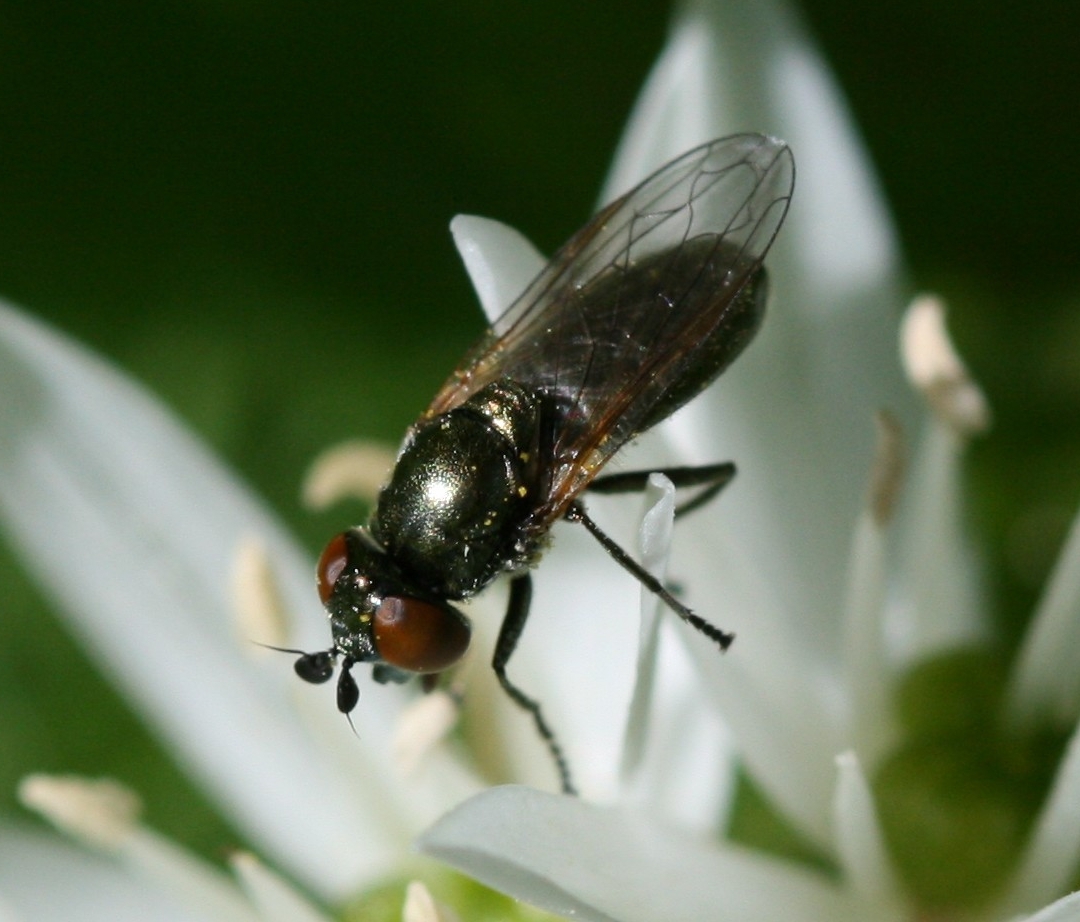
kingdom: Animalia
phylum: Arthropoda
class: Insecta
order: Diptera
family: Syrphidae
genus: Lejogaster
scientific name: Lejogaster metallina
